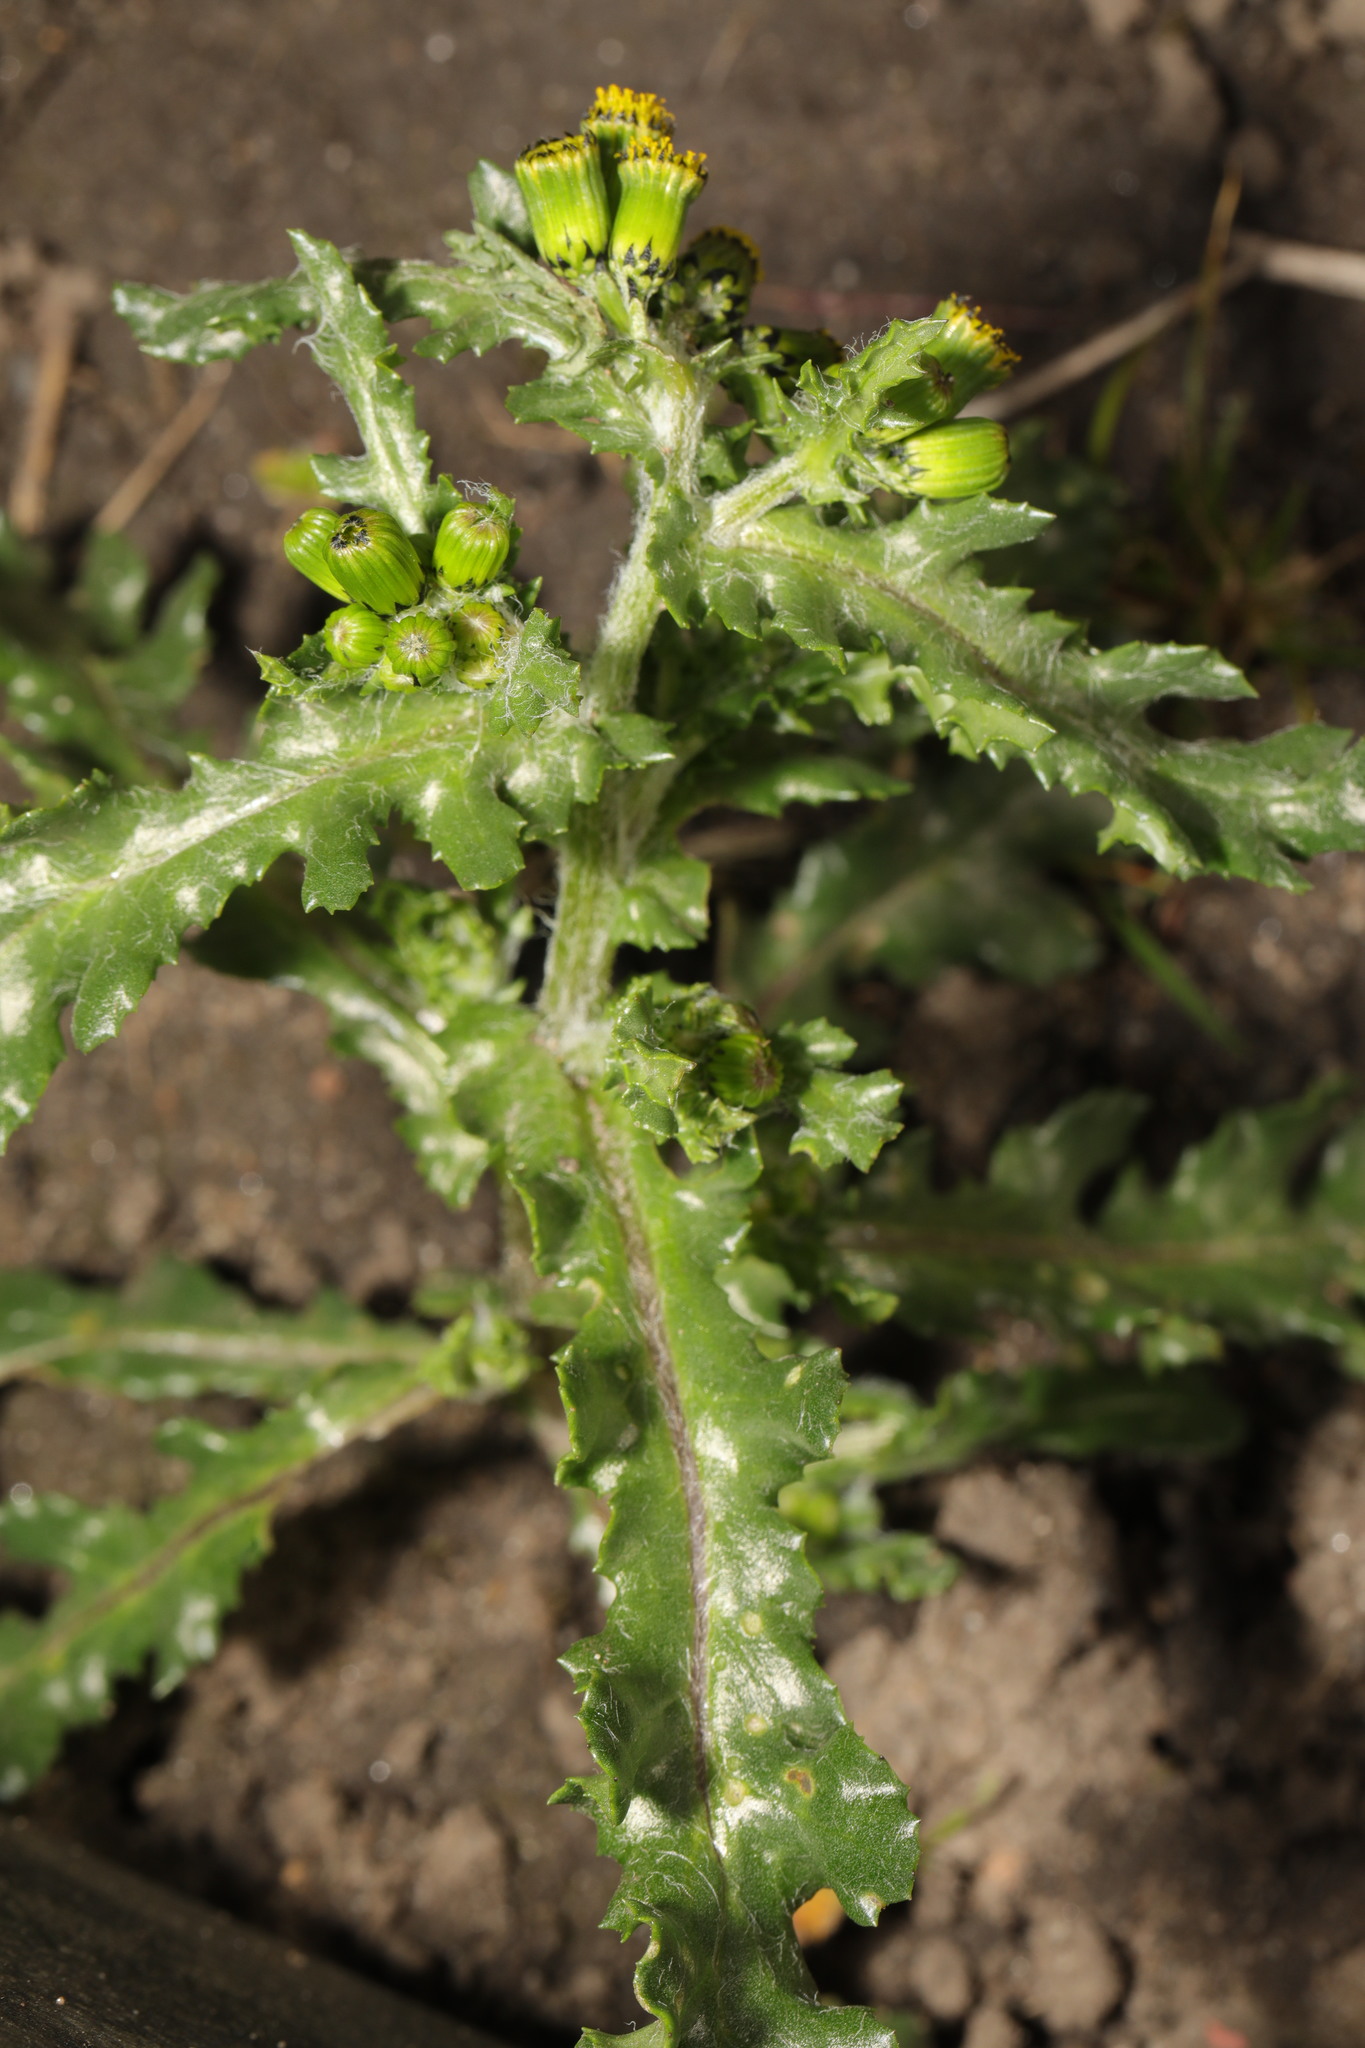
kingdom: Plantae
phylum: Tracheophyta
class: Magnoliopsida
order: Asterales
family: Asteraceae
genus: Senecio
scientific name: Senecio vulgaris
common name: Old-man-in-the-spring
